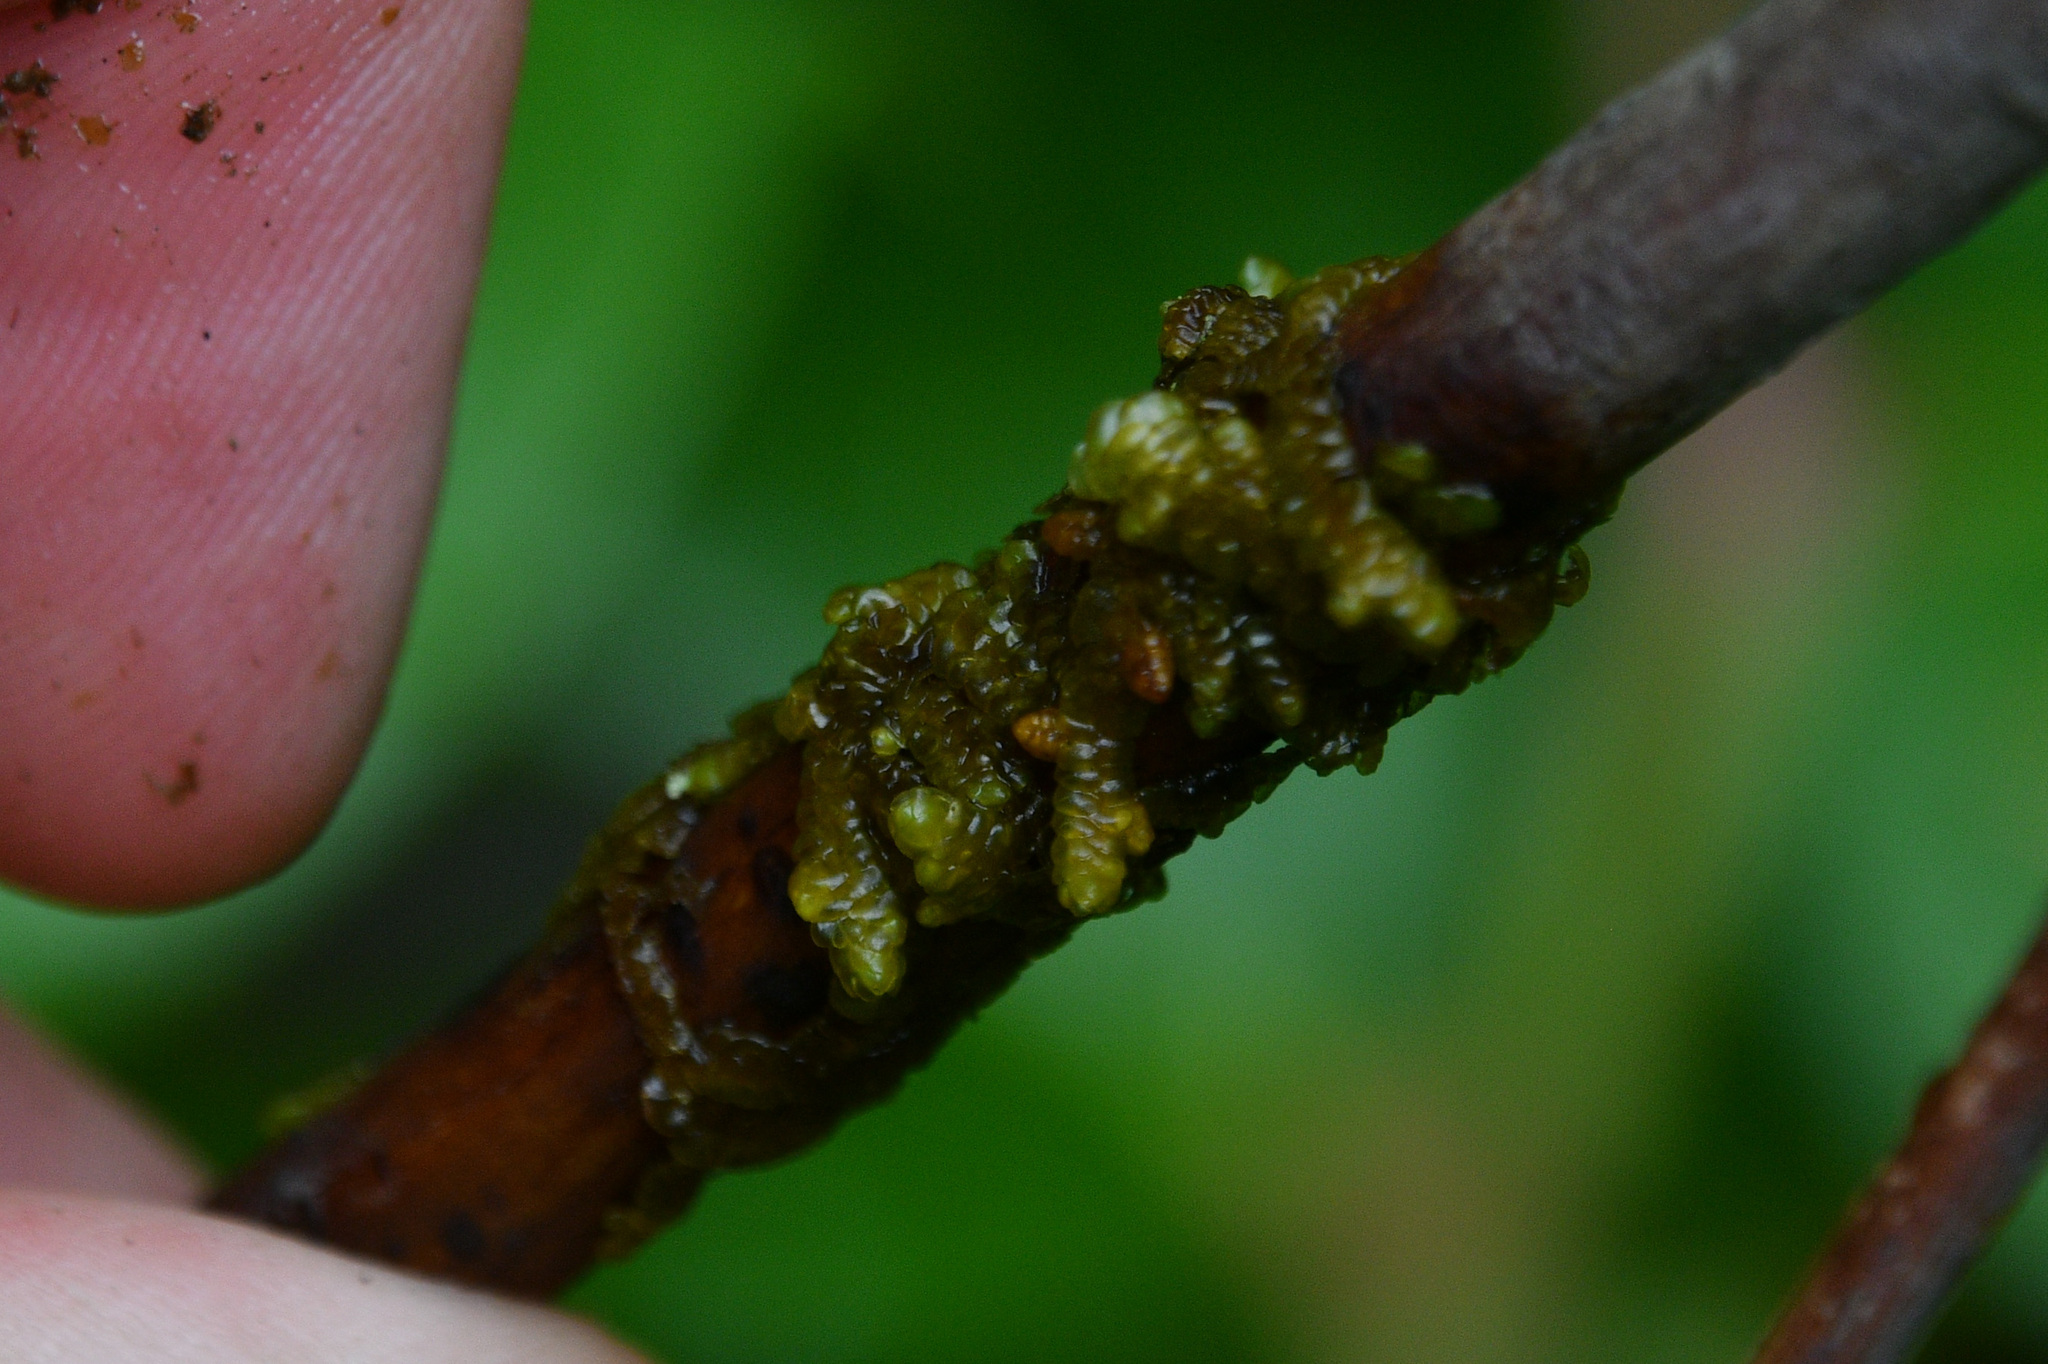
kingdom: Plantae
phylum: Marchantiophyta
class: Jungermanniopsida
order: Porellales
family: Porellaceae
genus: Porella
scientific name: Porella navicularis
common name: Tree ruffle liverwort
